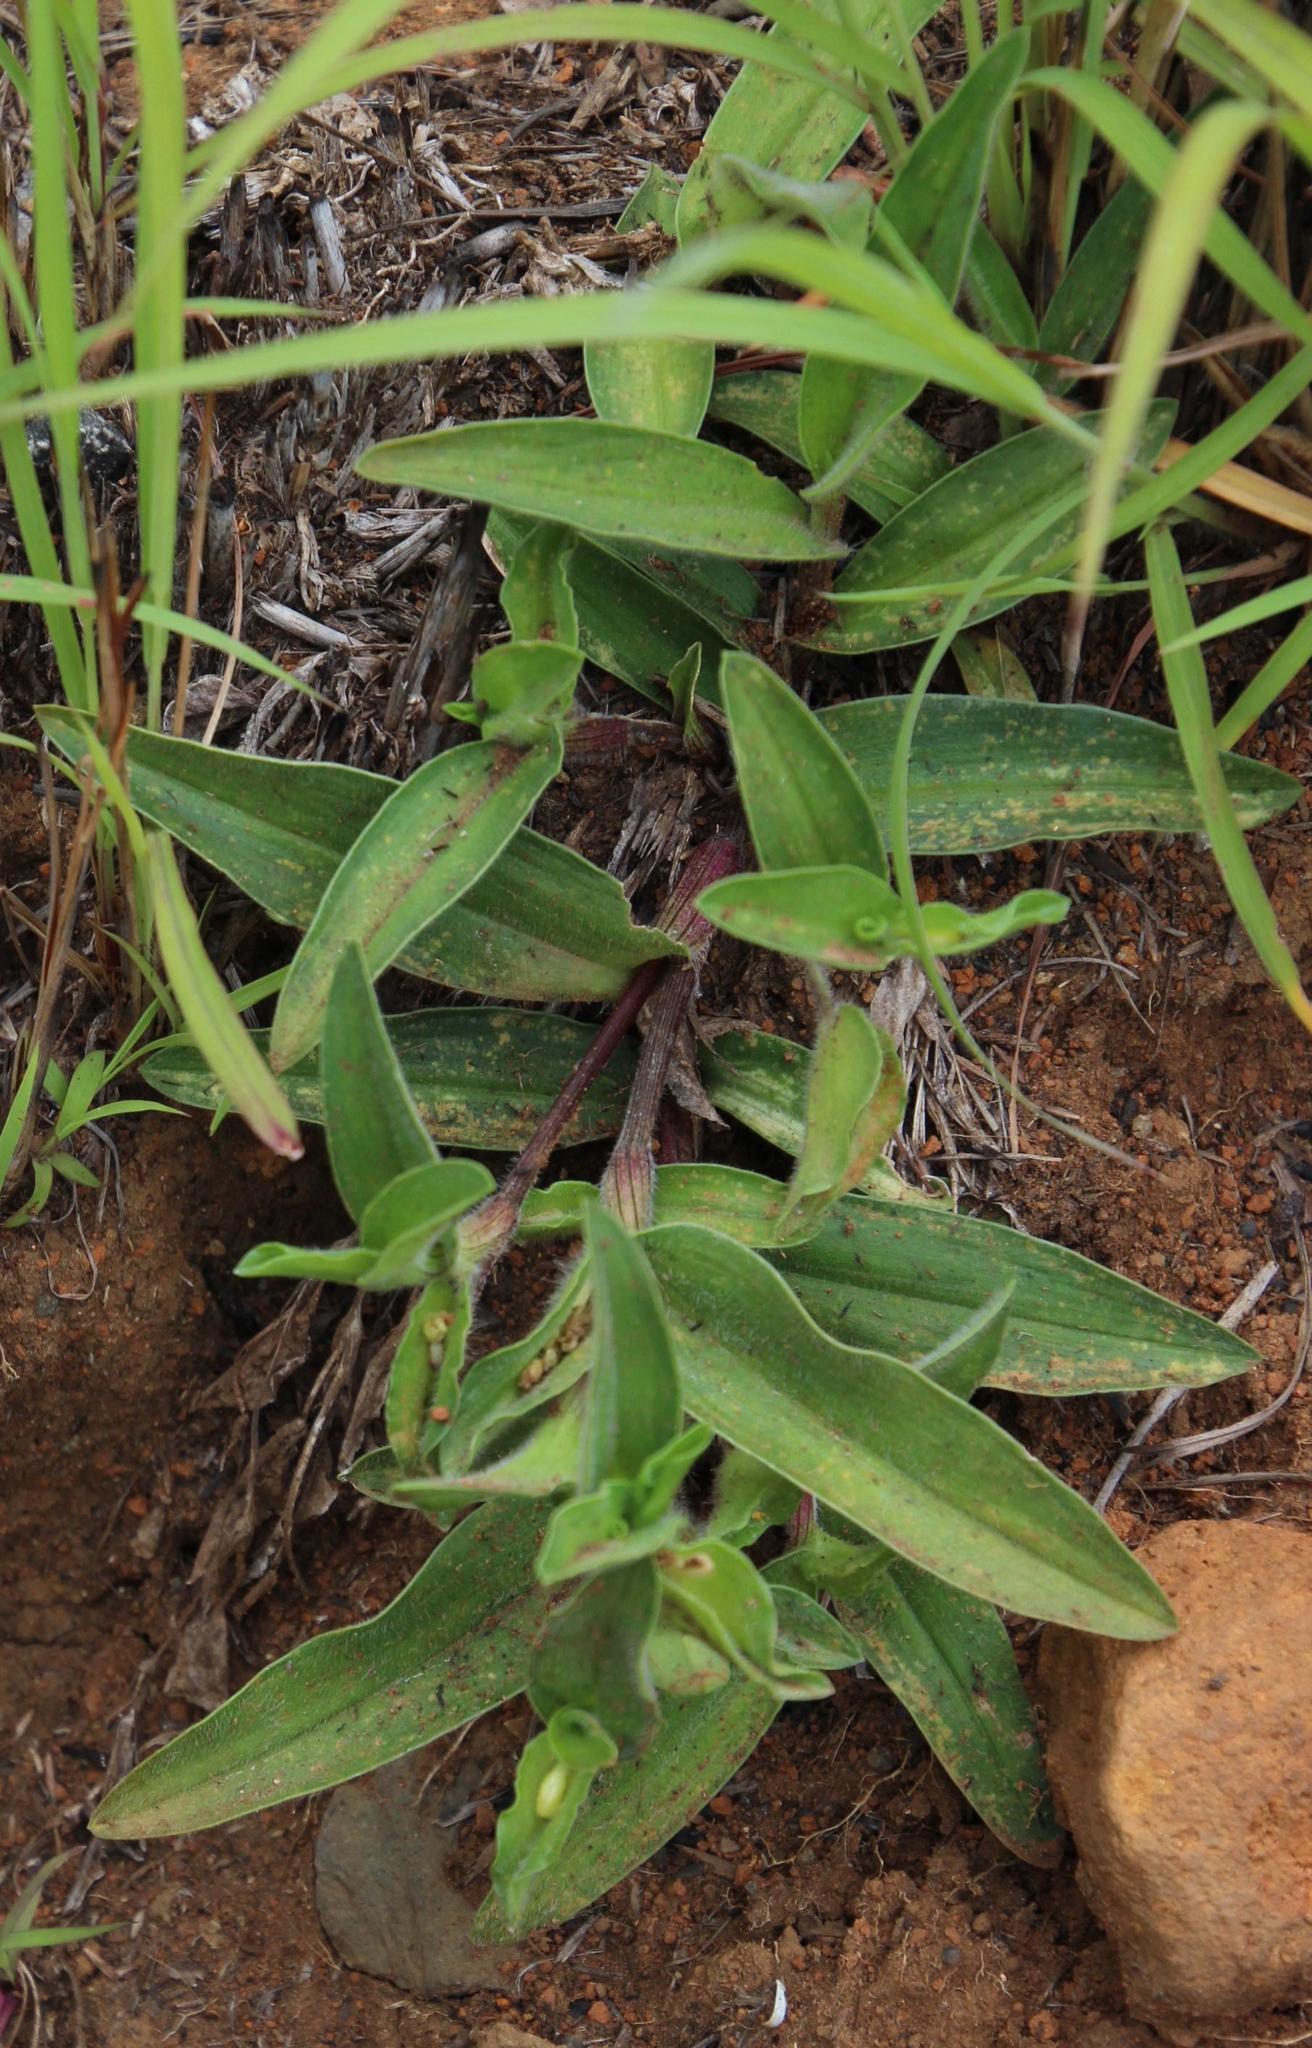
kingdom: Plantae
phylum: Tracheophyta
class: Liliopsida
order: Commelinales
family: Commelinaceae
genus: Commelina
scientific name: Commelina africana
